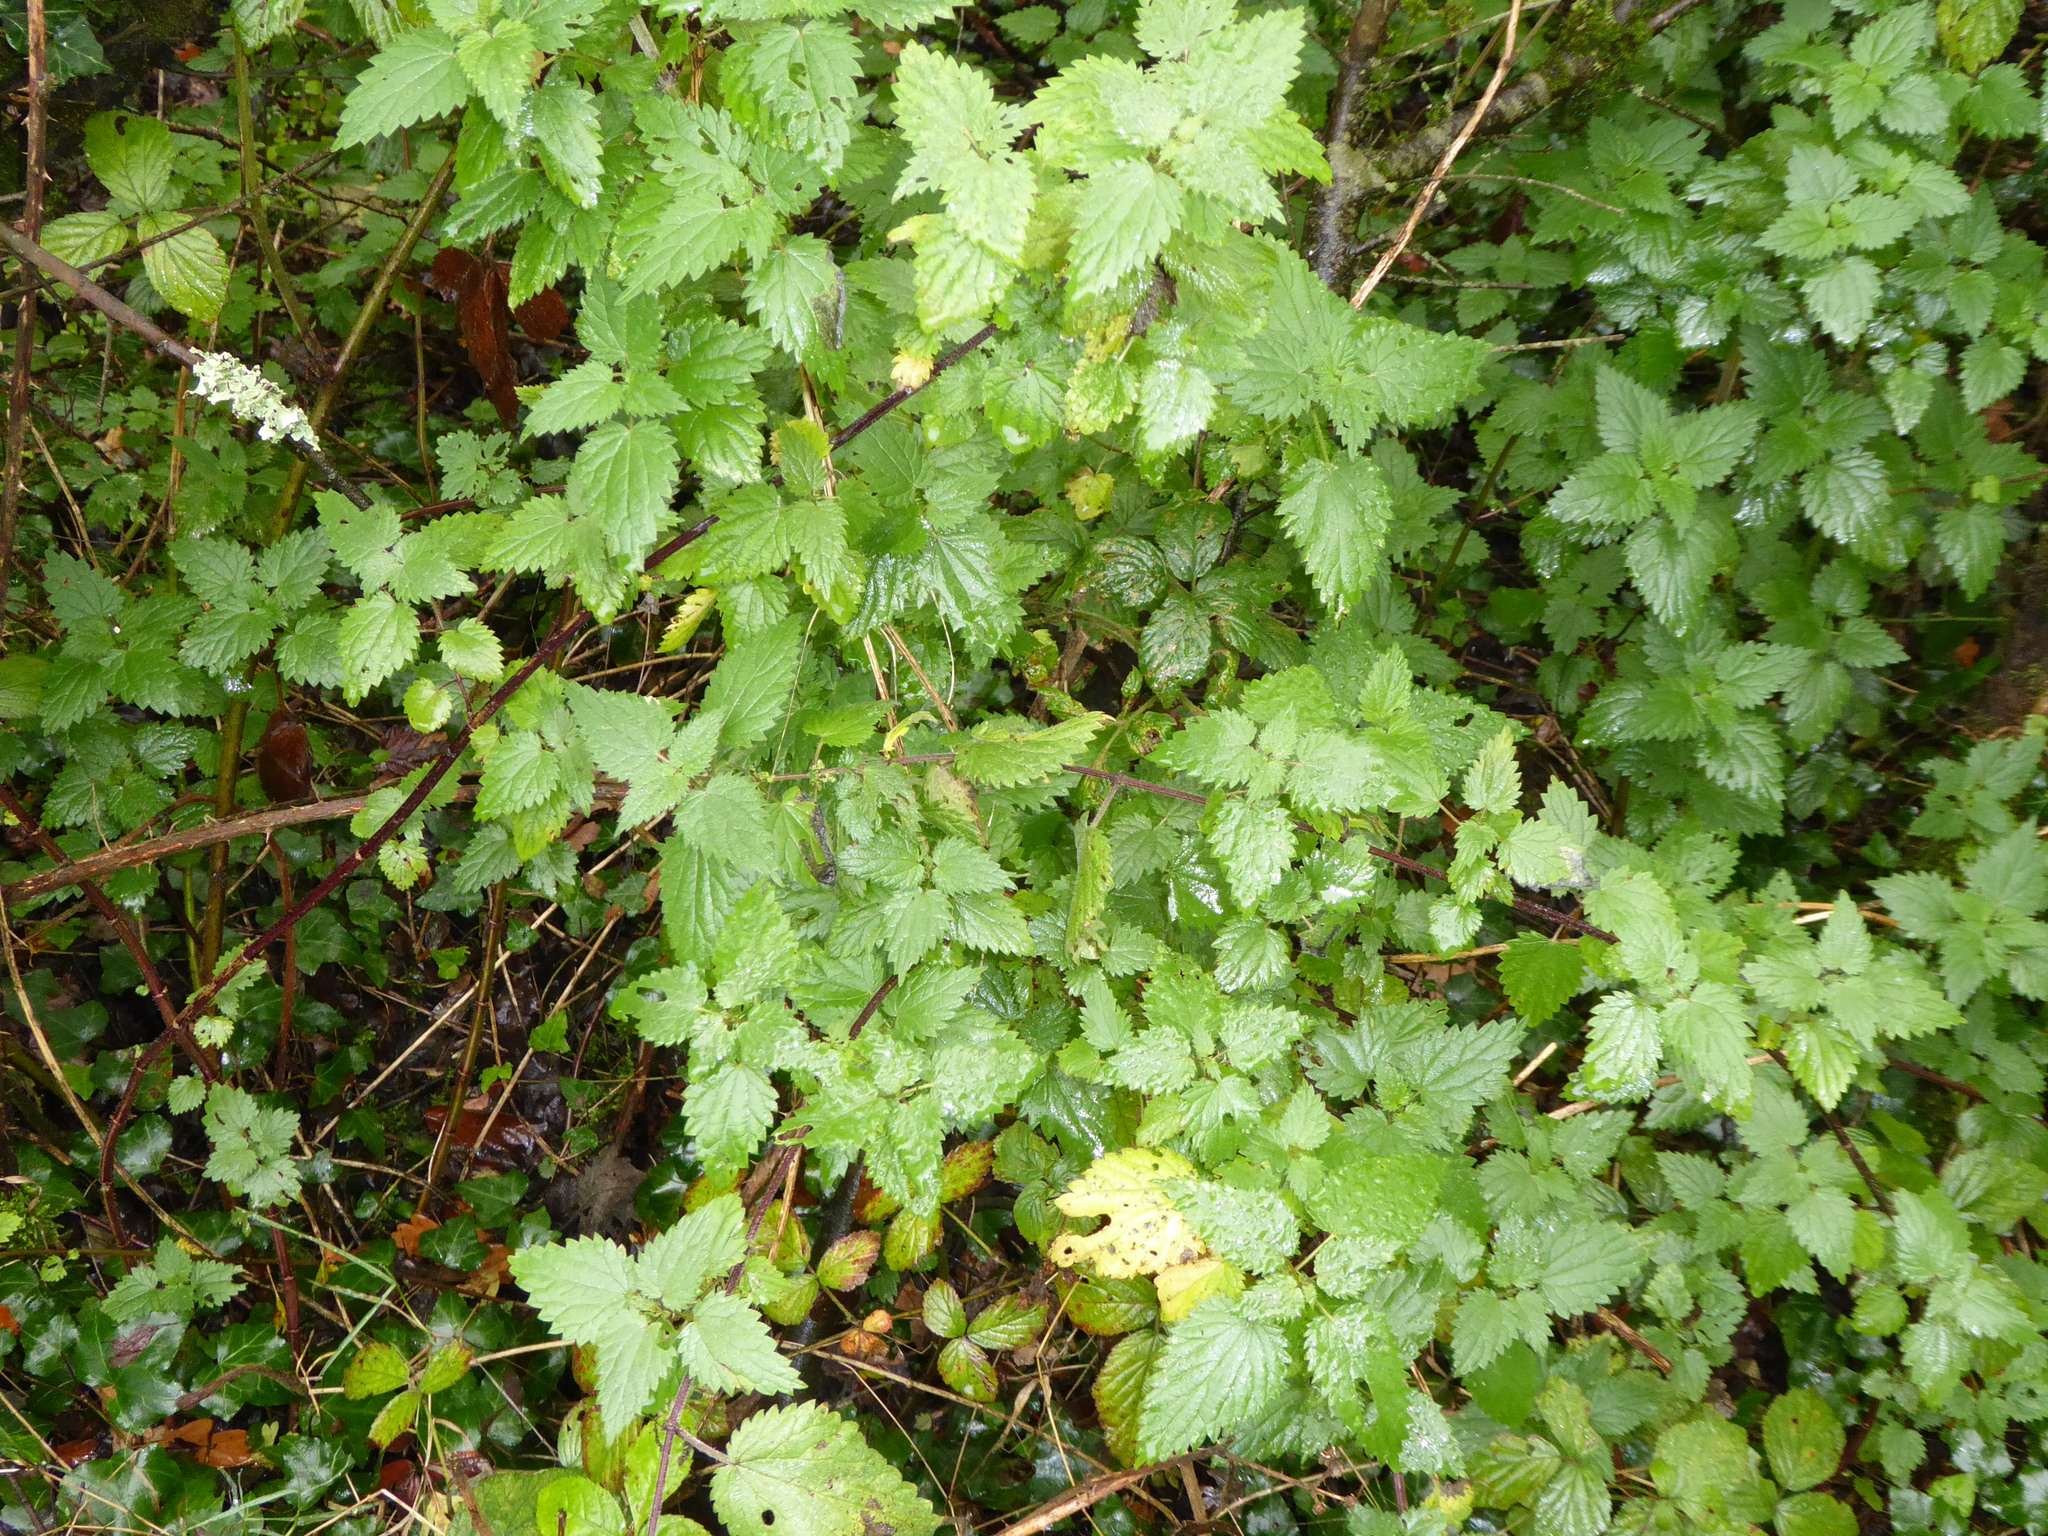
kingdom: Plantae
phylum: Tracheophyta
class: Magnoliopsida
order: Rosales
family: Urticaceae
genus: Urtica
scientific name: Urtica dioica
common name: Common nettle
